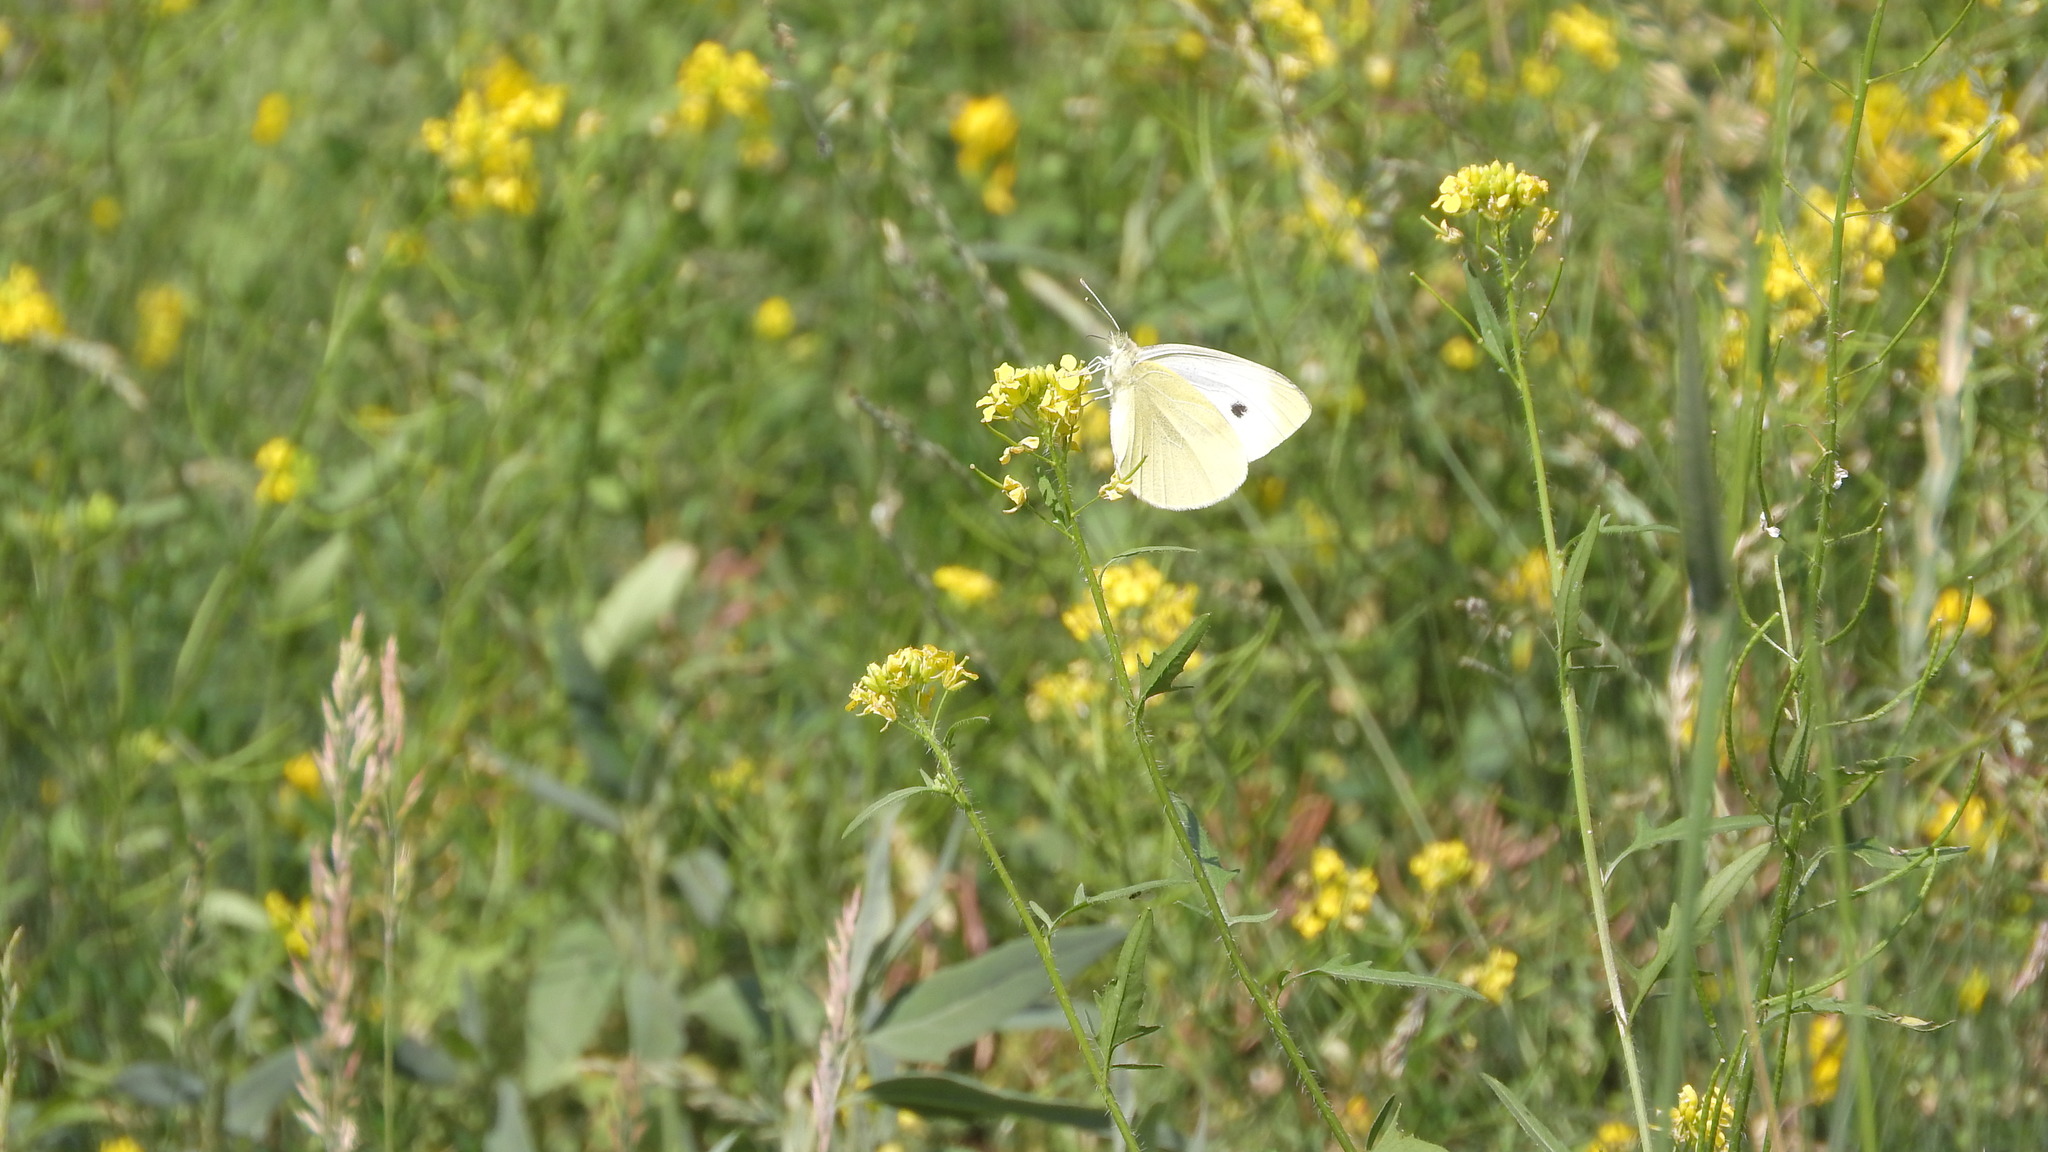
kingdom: Animalia
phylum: Arthropoda
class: Insecta
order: Lepidoptera
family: Pieridae
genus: Pieris
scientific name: Pieris rapae
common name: Small white
